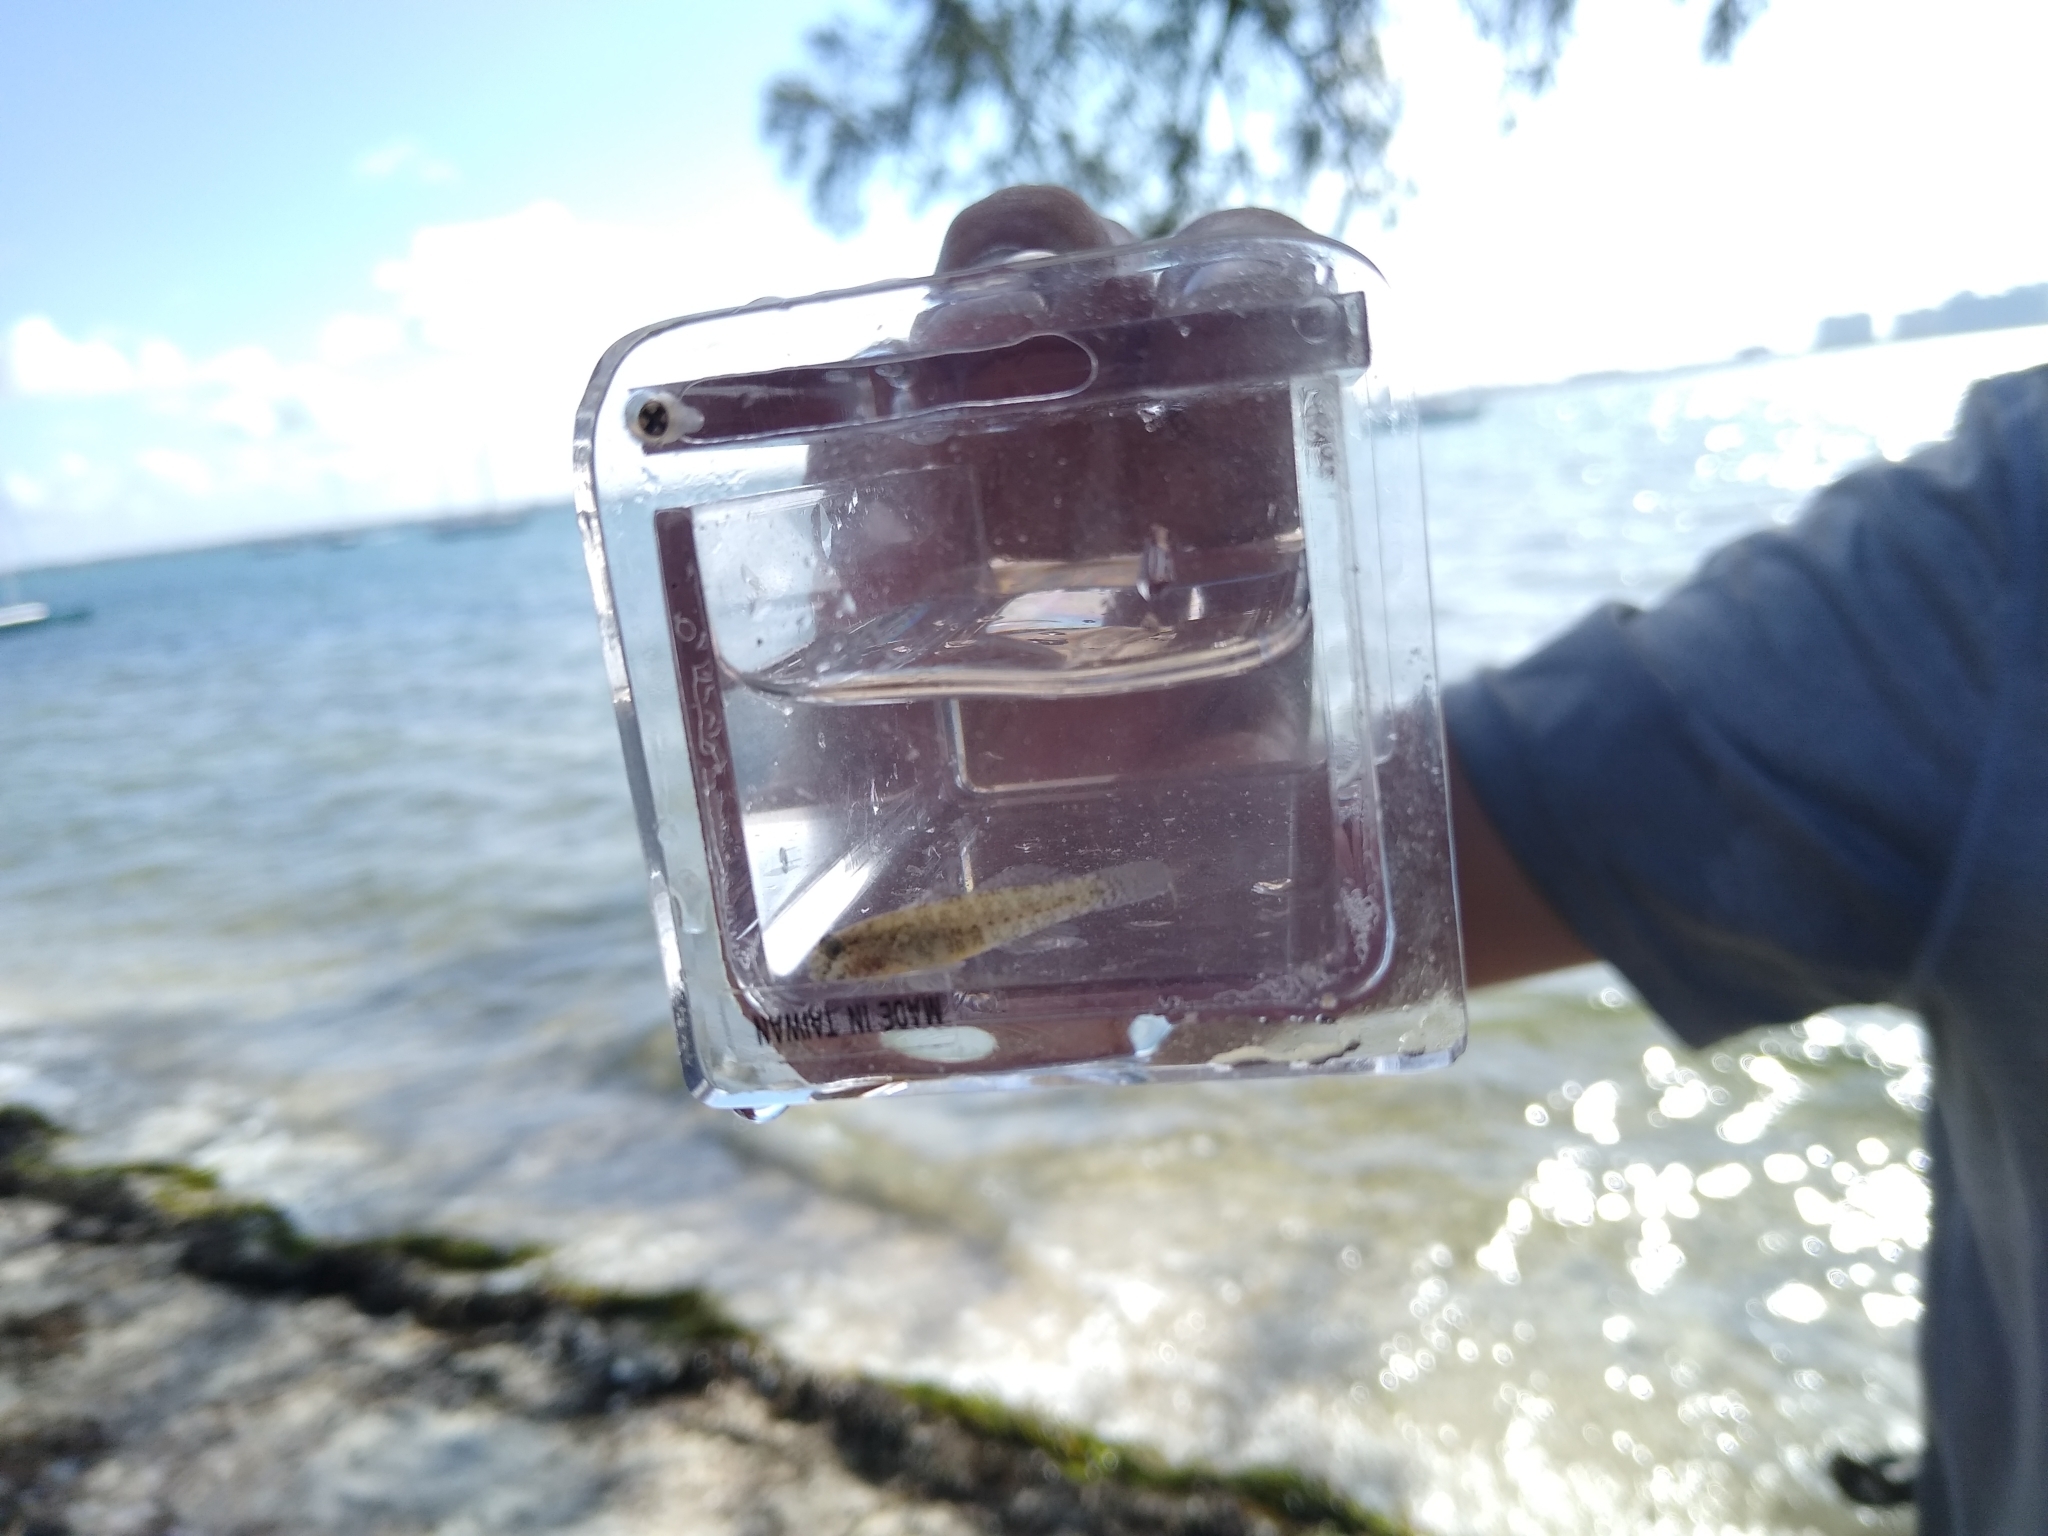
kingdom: Animalia
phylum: Chordata
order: Perciformes
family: Gobiidae
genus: Gobiosoma
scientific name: Gobiosoma robustum
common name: Code goby
